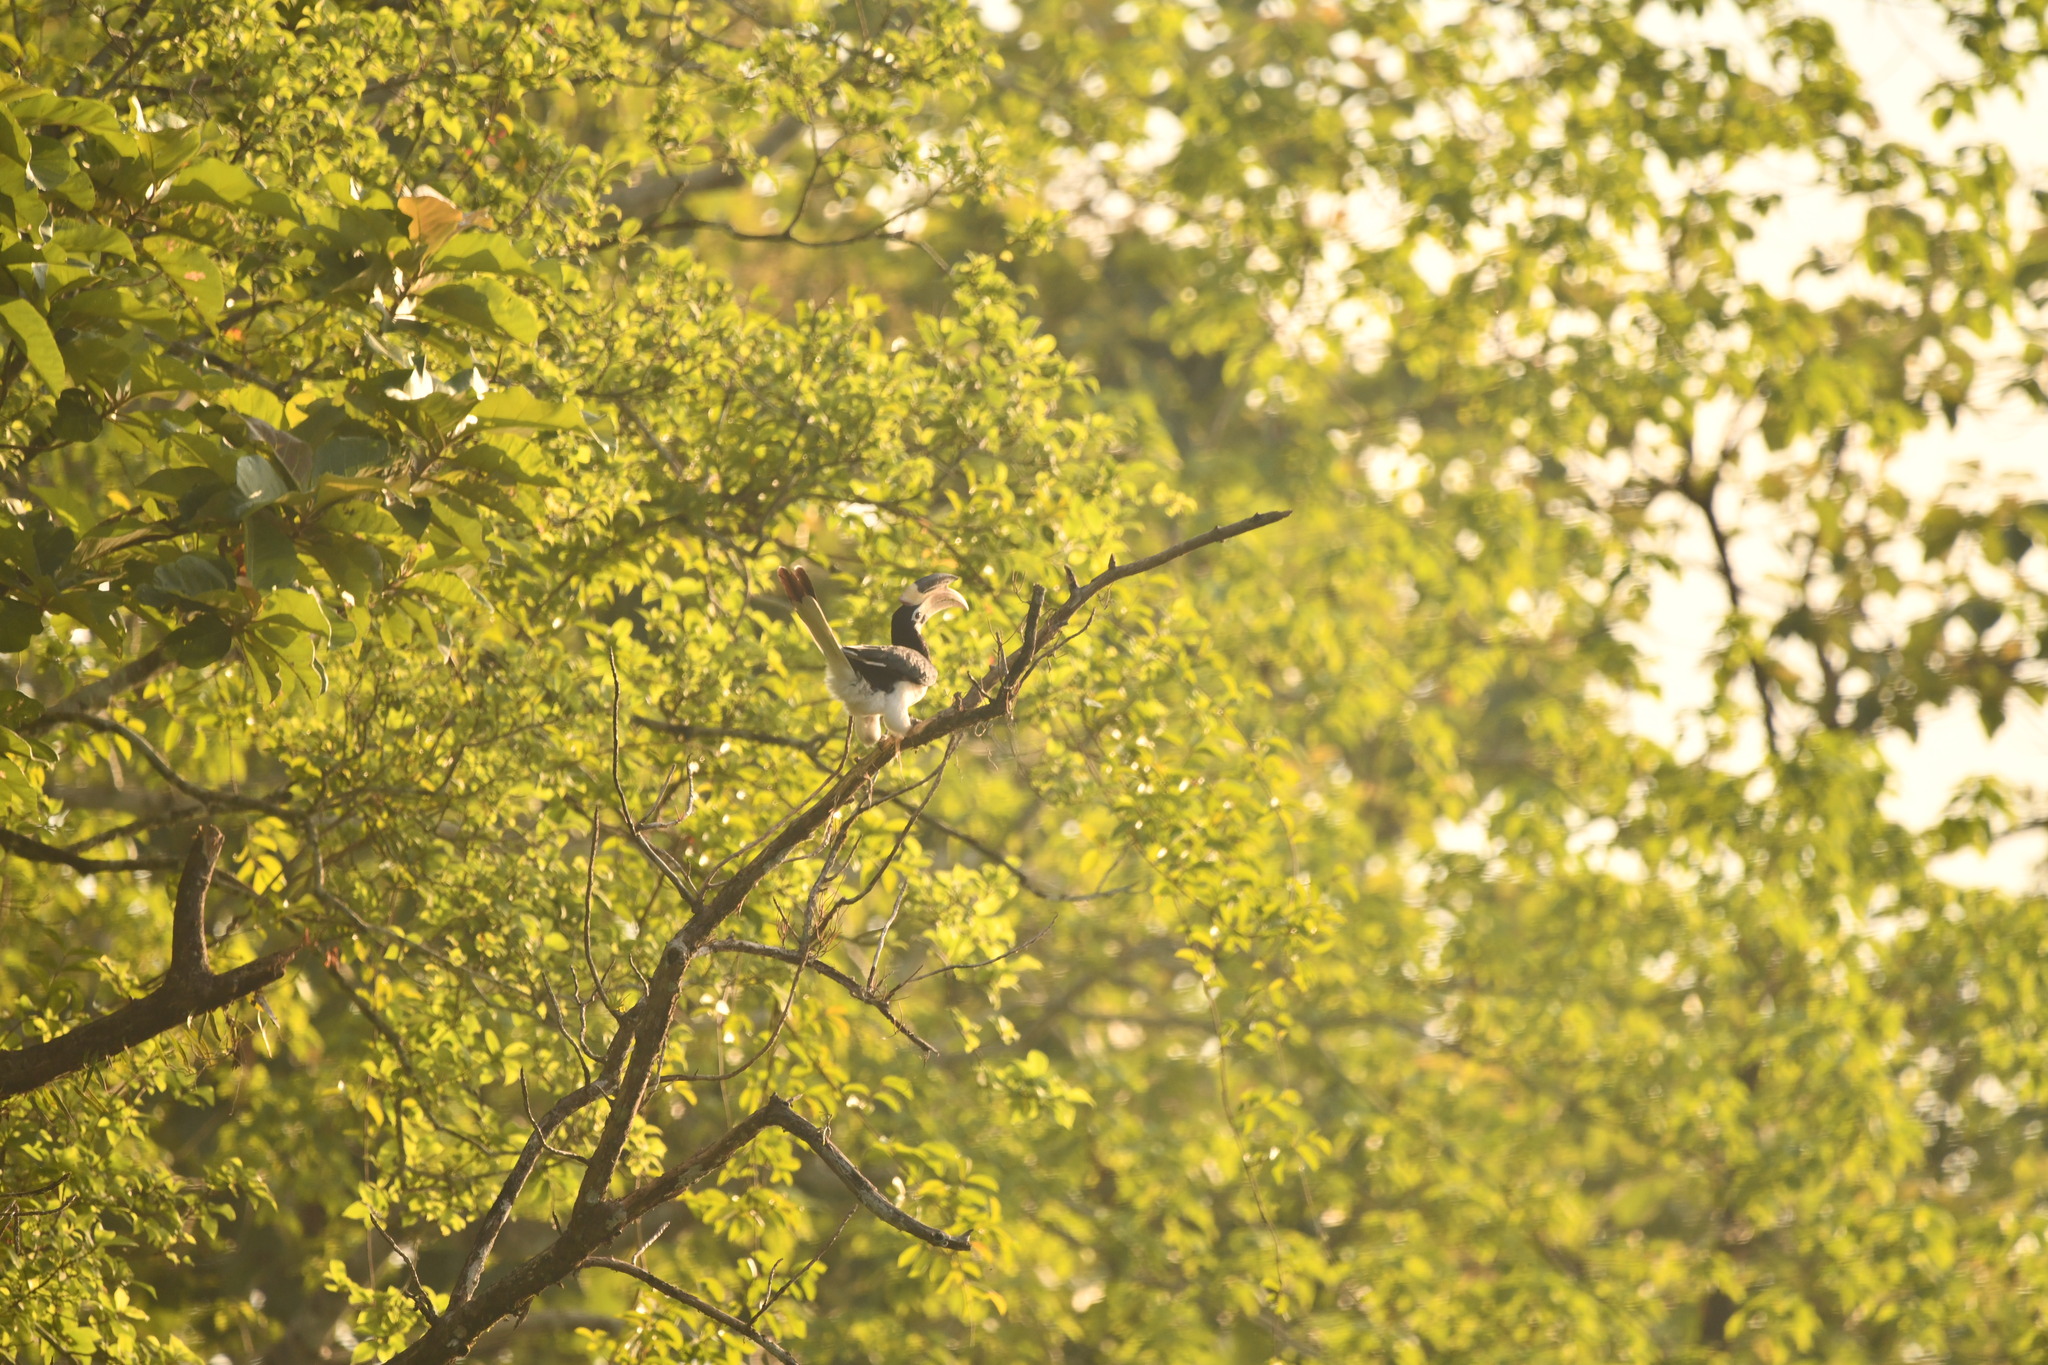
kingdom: Animalia
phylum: Chordata
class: Aves
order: Bucerotiformes
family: Bucerotidae
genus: Anthracoceros
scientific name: Anthracoceros coronatus
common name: Malabar pied hornbill
